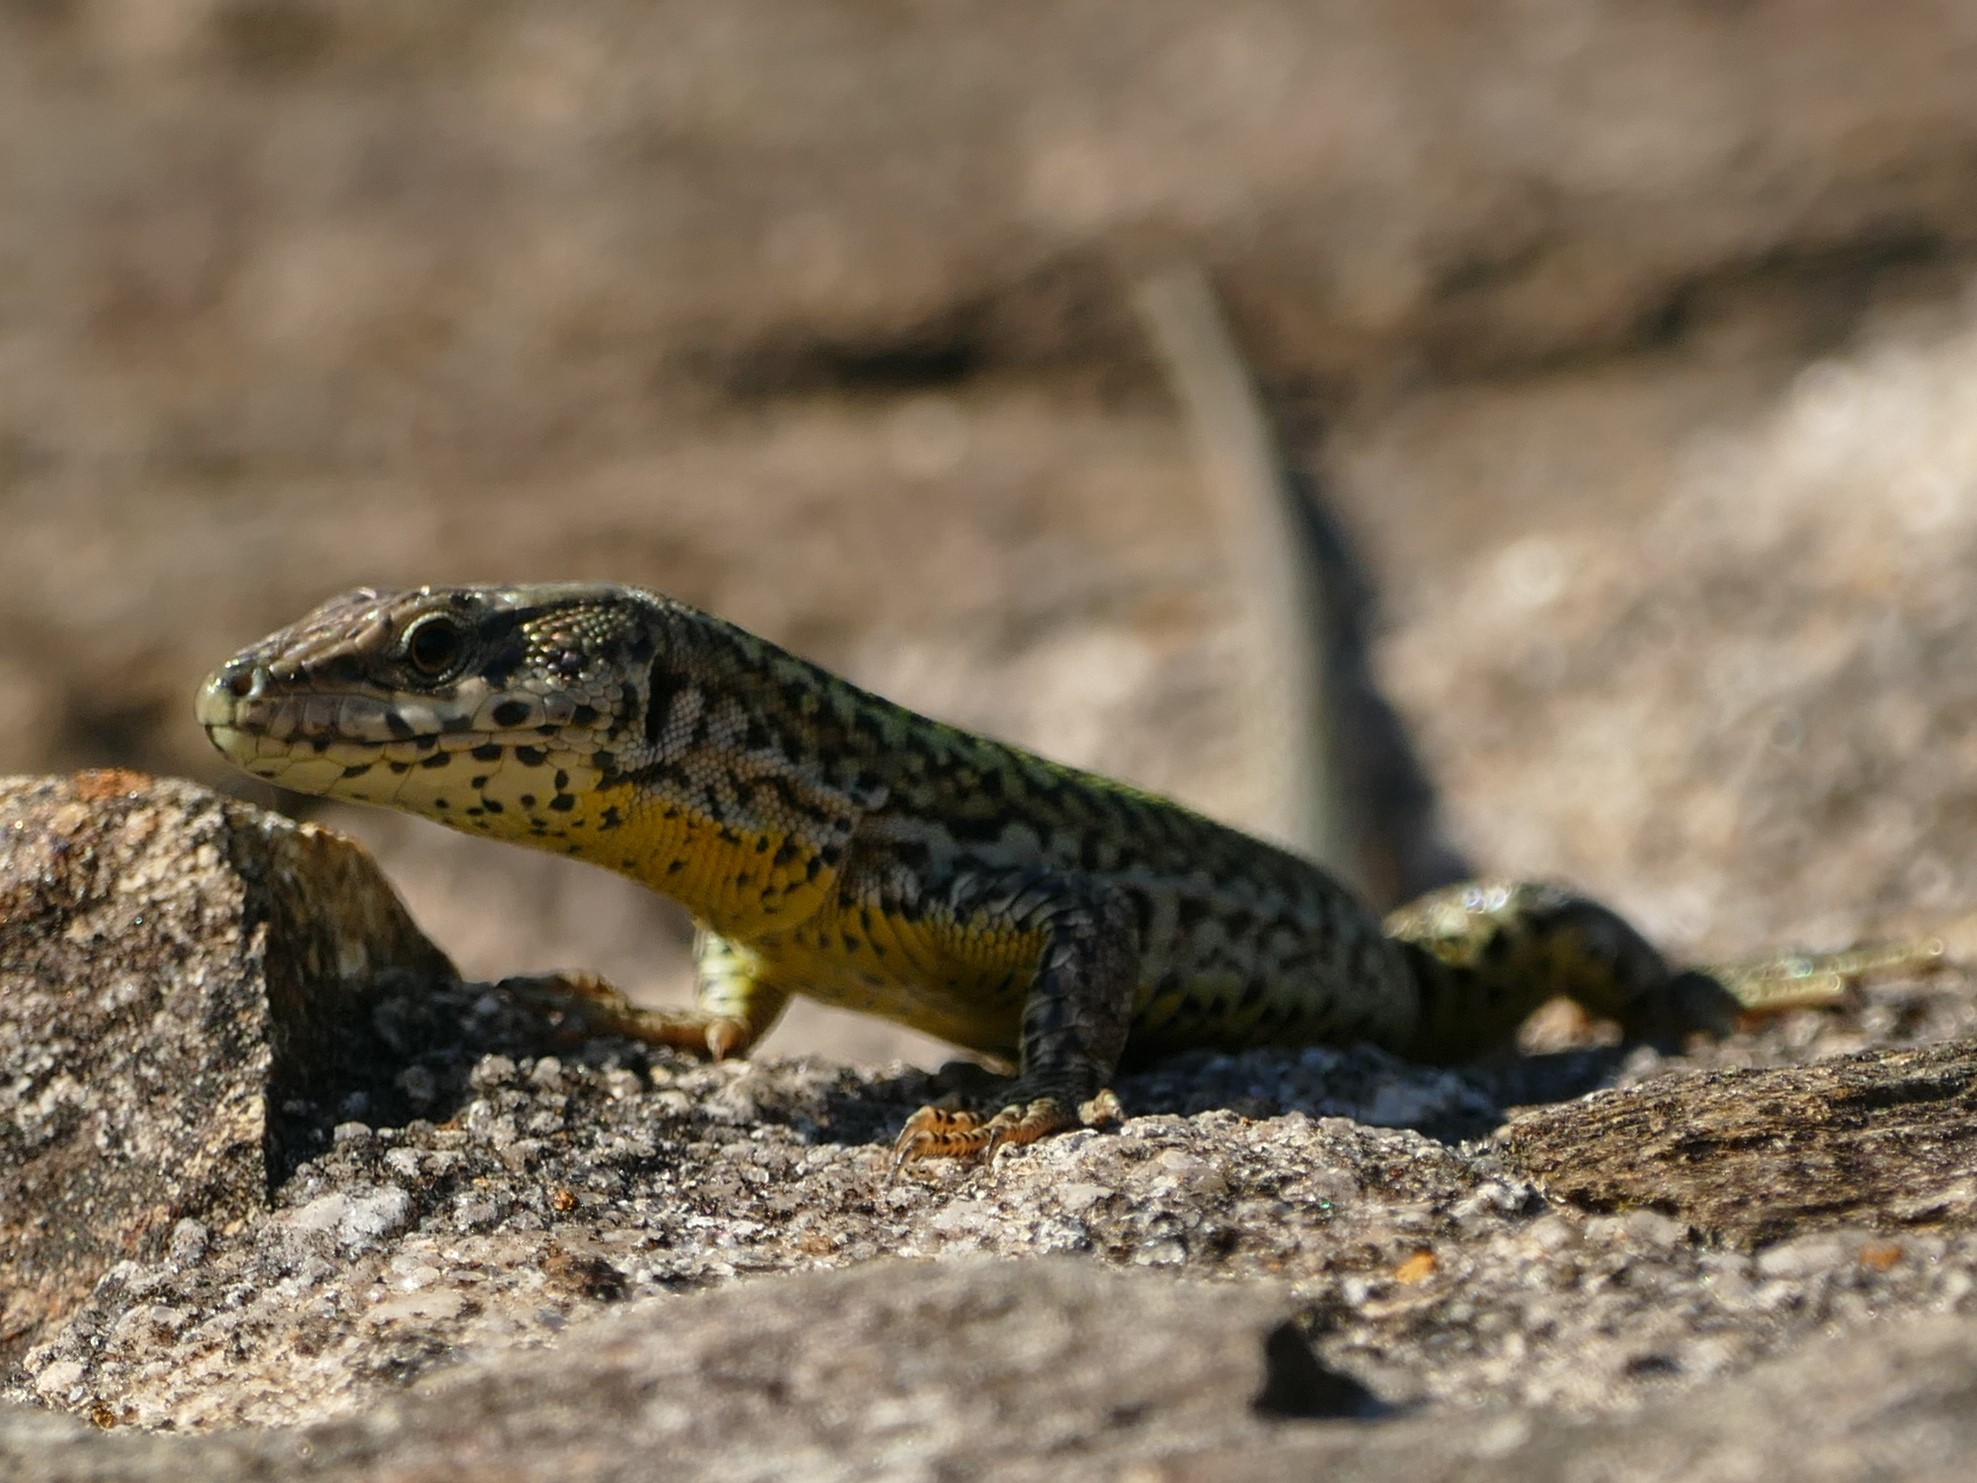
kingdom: Animalia
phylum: Chordata
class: Squamata
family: Lacertidae
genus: Podarcis
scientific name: Podarcis bocagei
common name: Bocage's wall lizard
